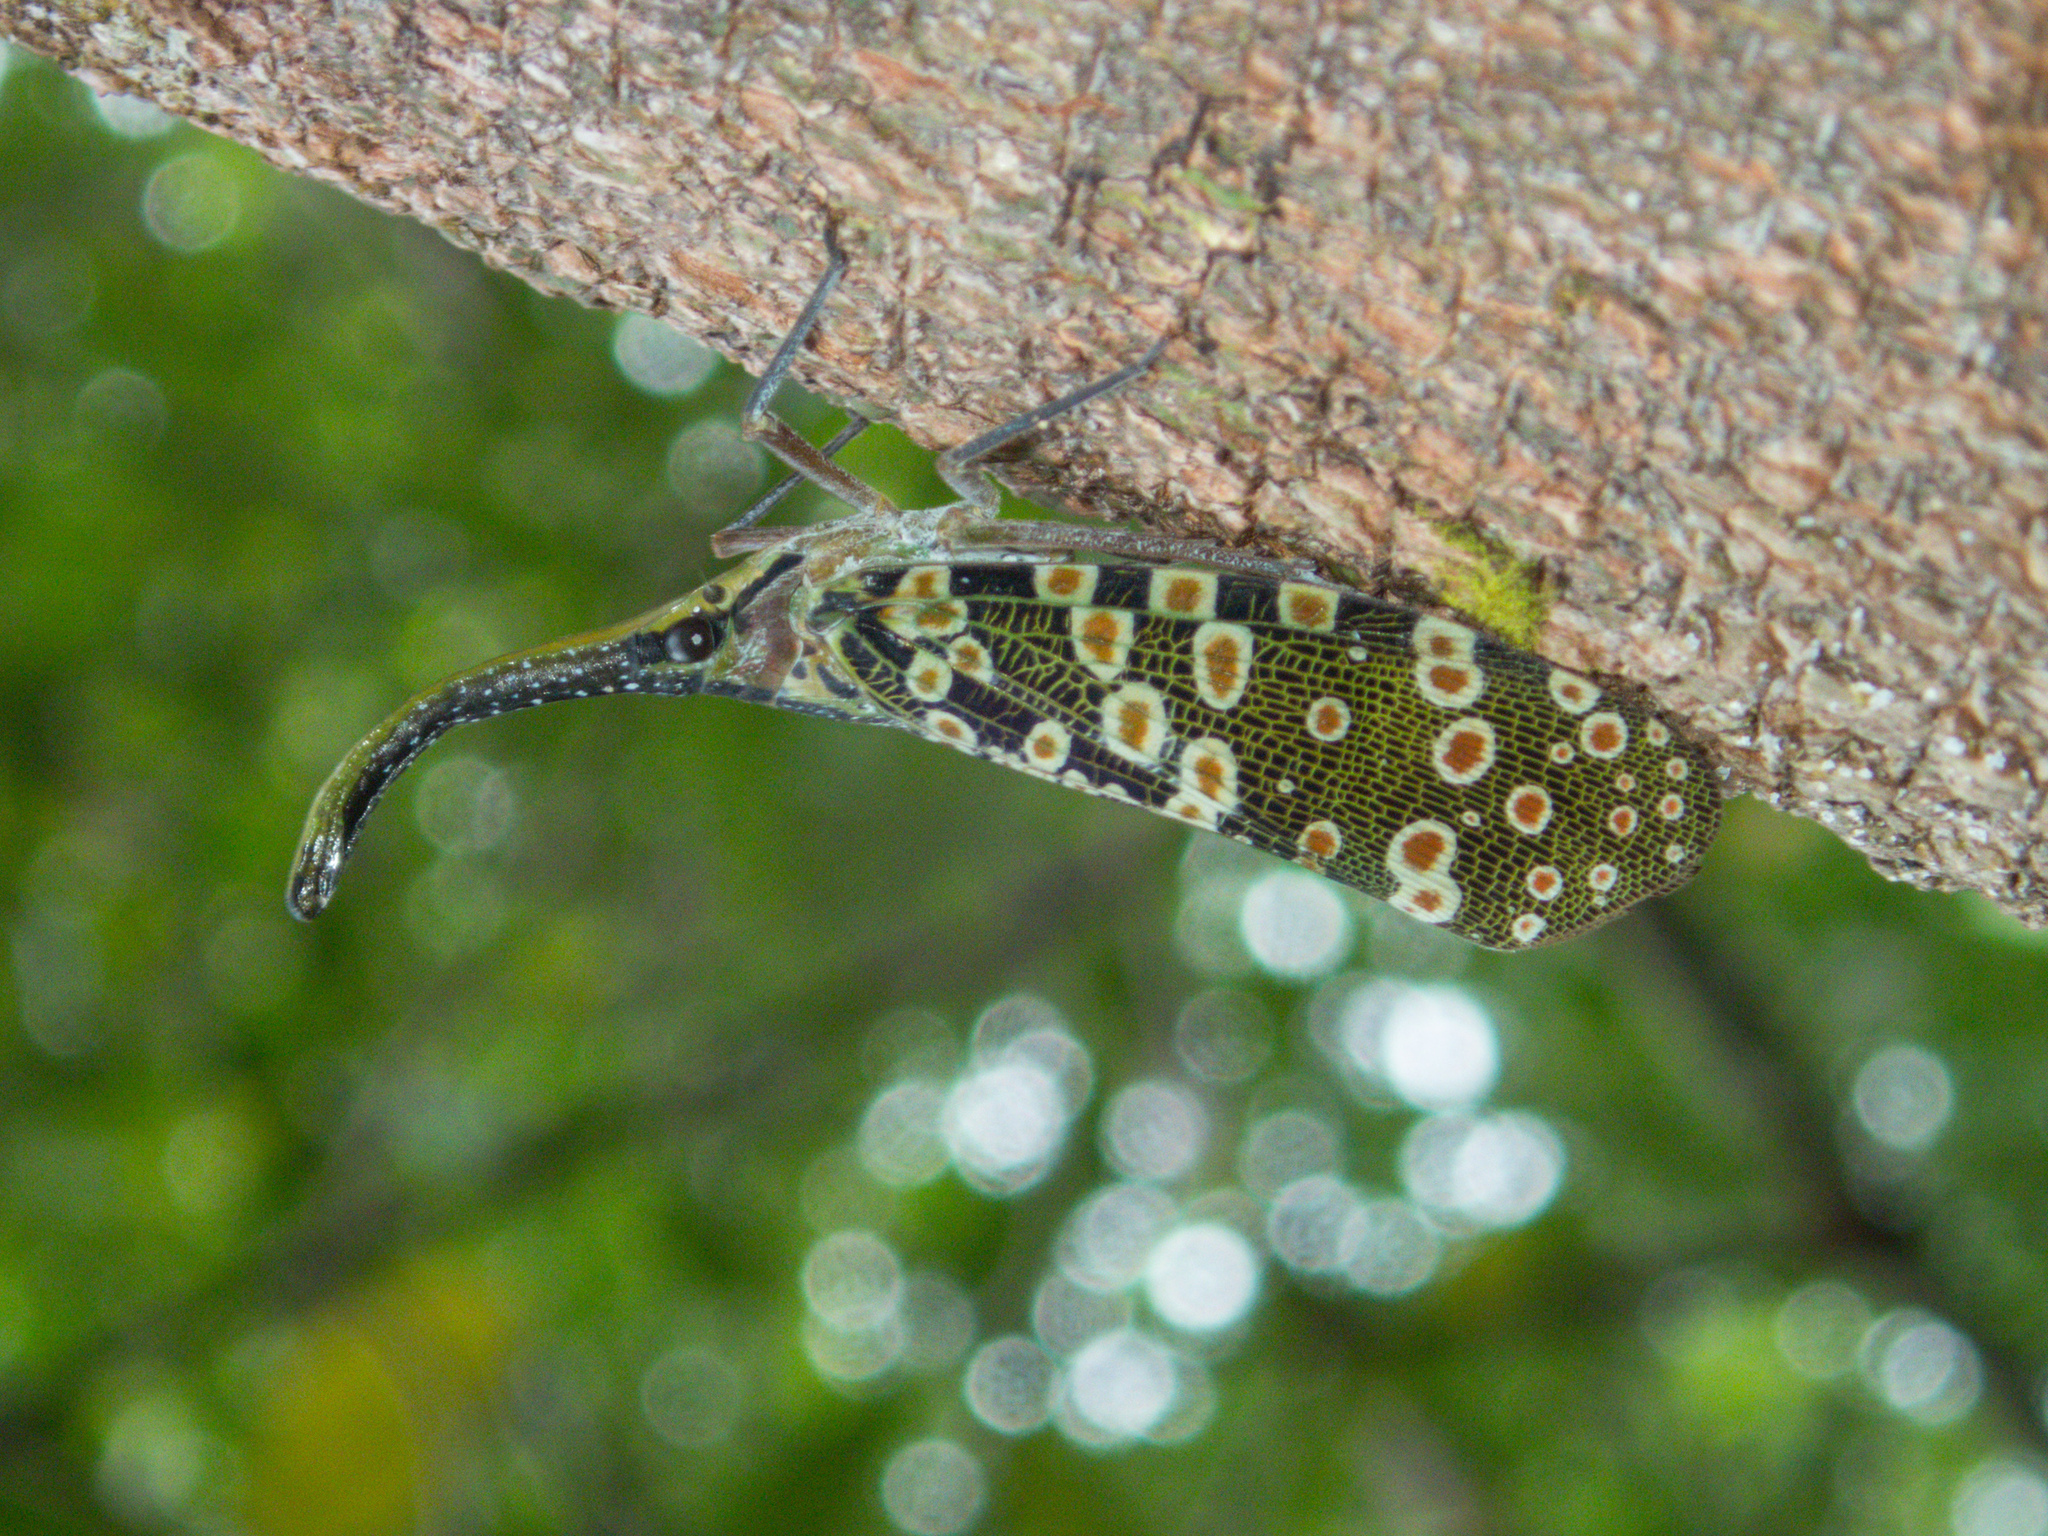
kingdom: Animalia
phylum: Arthropoda
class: Insecta
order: Hemiptera
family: Fulgoridae
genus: Pyrops
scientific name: Pyrops condorinus
